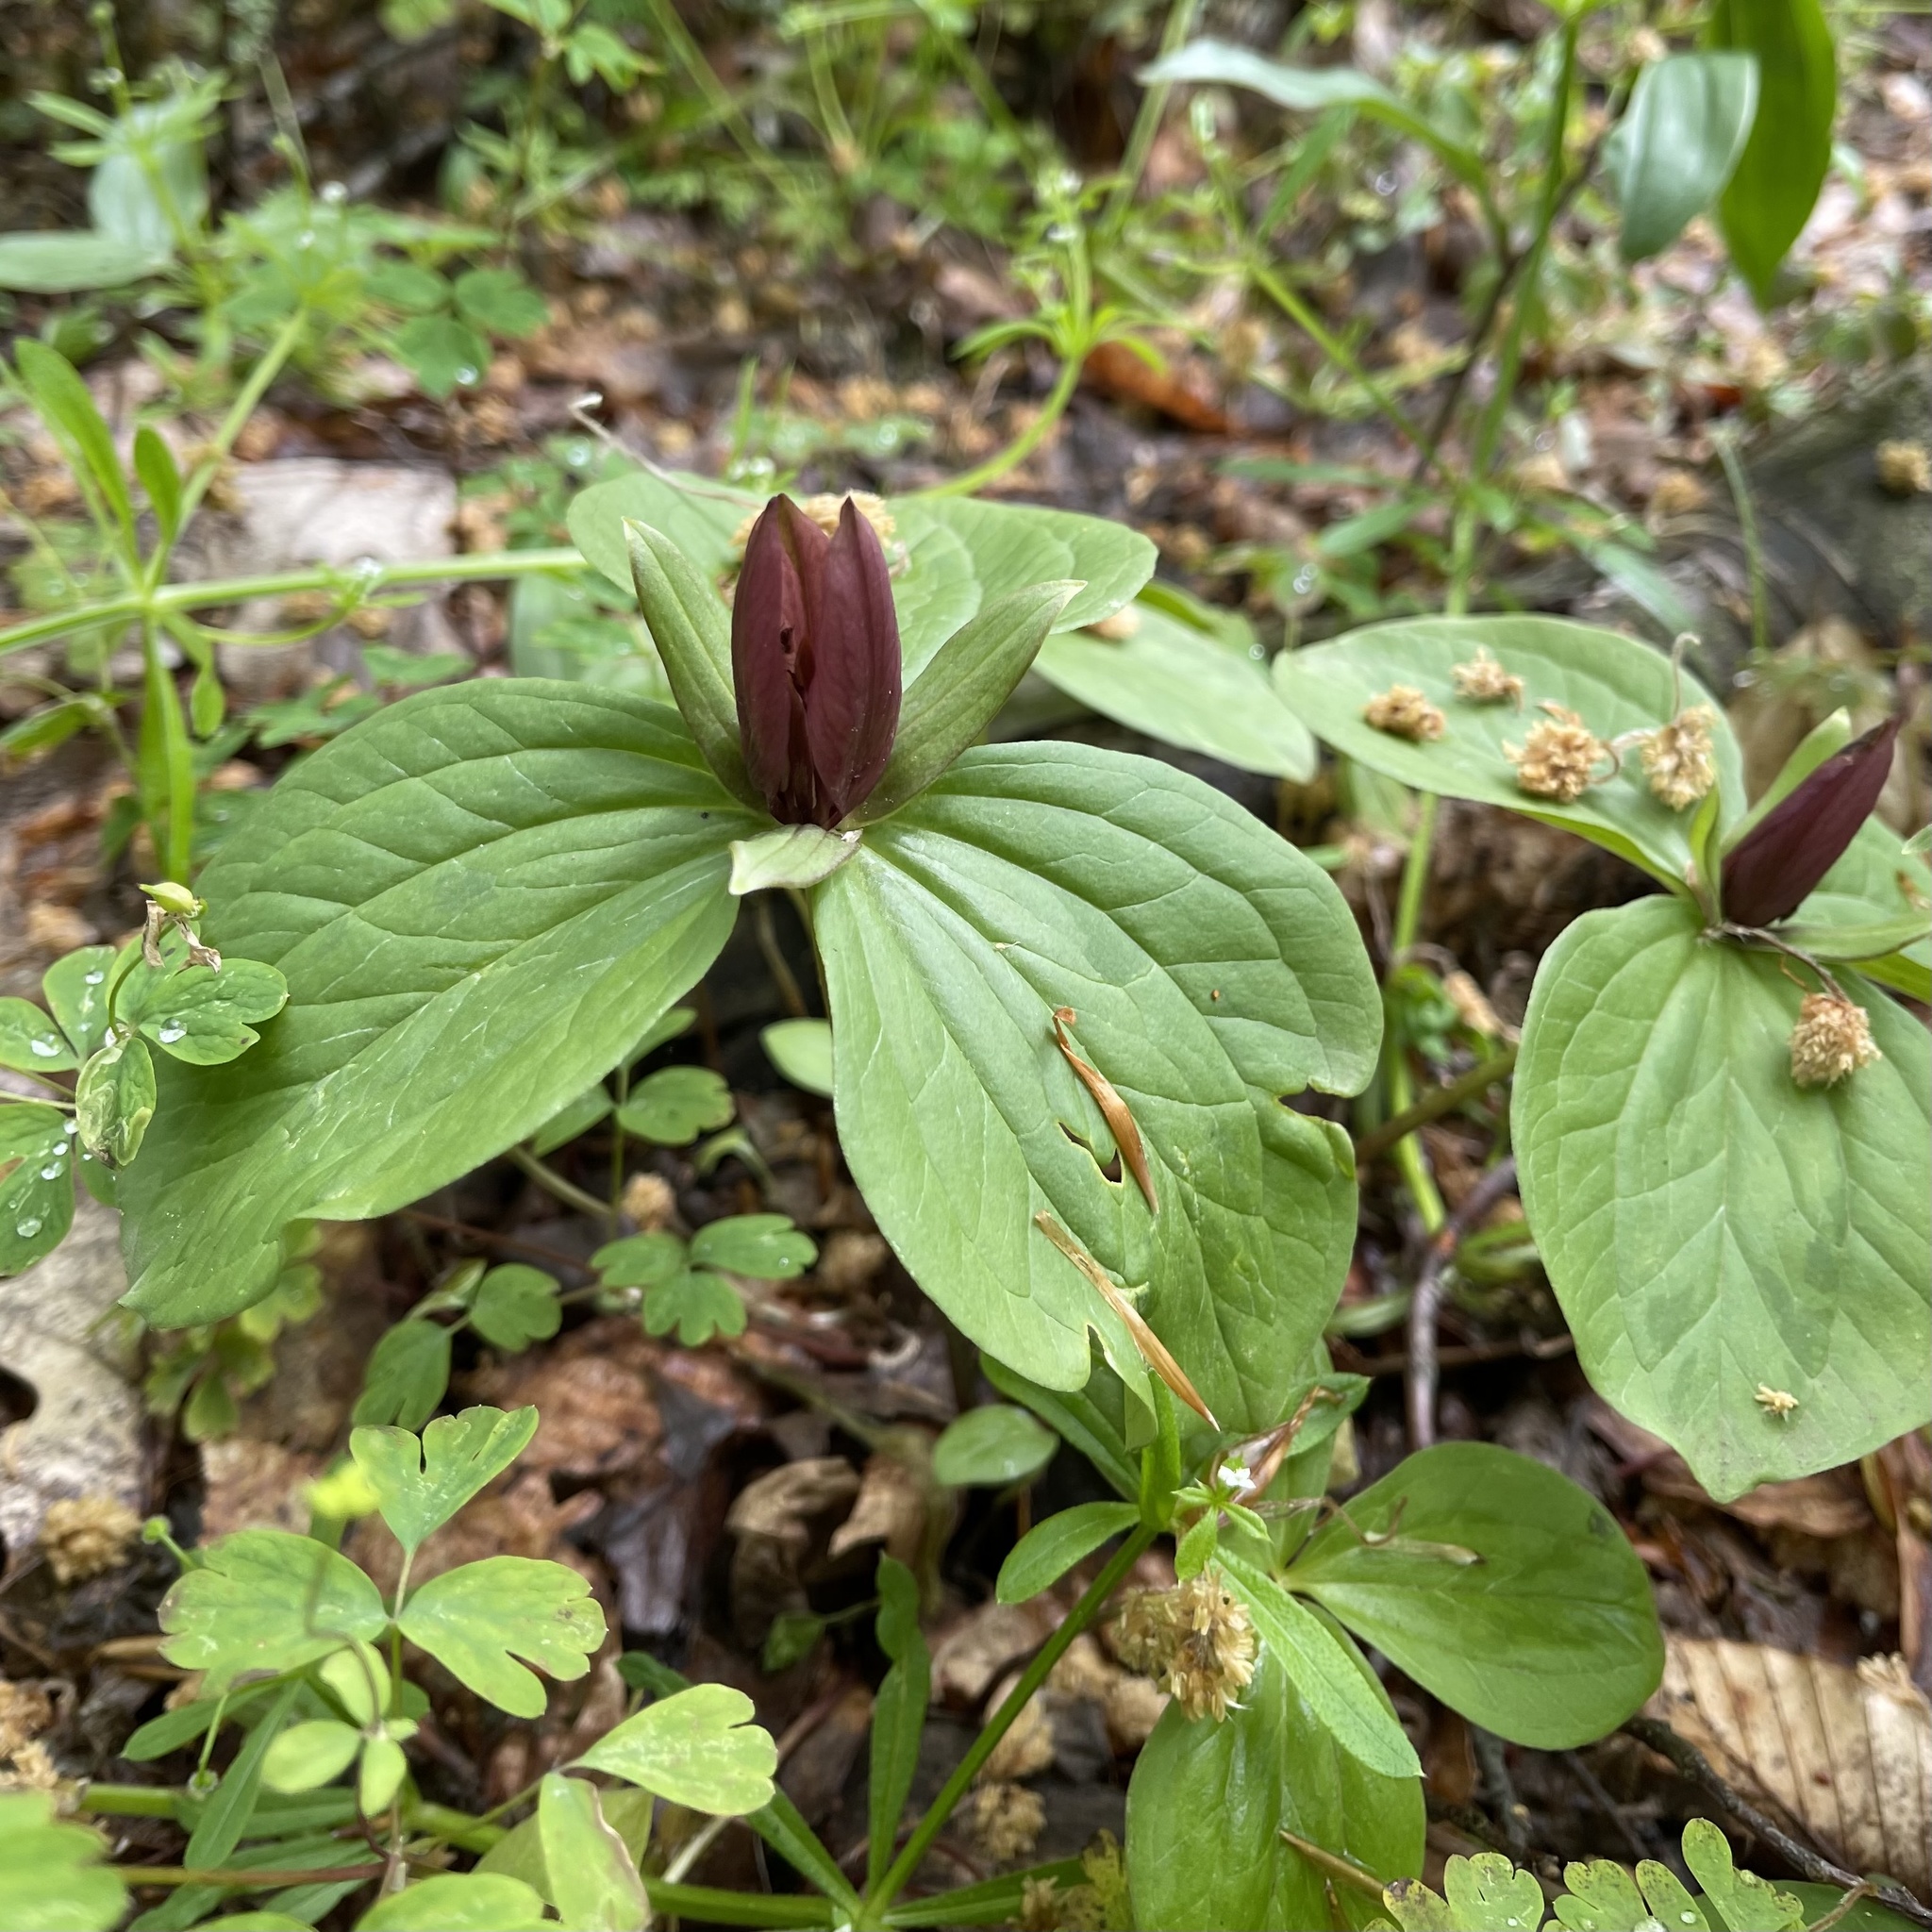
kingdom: Plantae
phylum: Tracheophyta
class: Liliopsida
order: Liliales
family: Melanthiaceae
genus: Trillium
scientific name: Trillium sessile
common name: Sessile trillium
